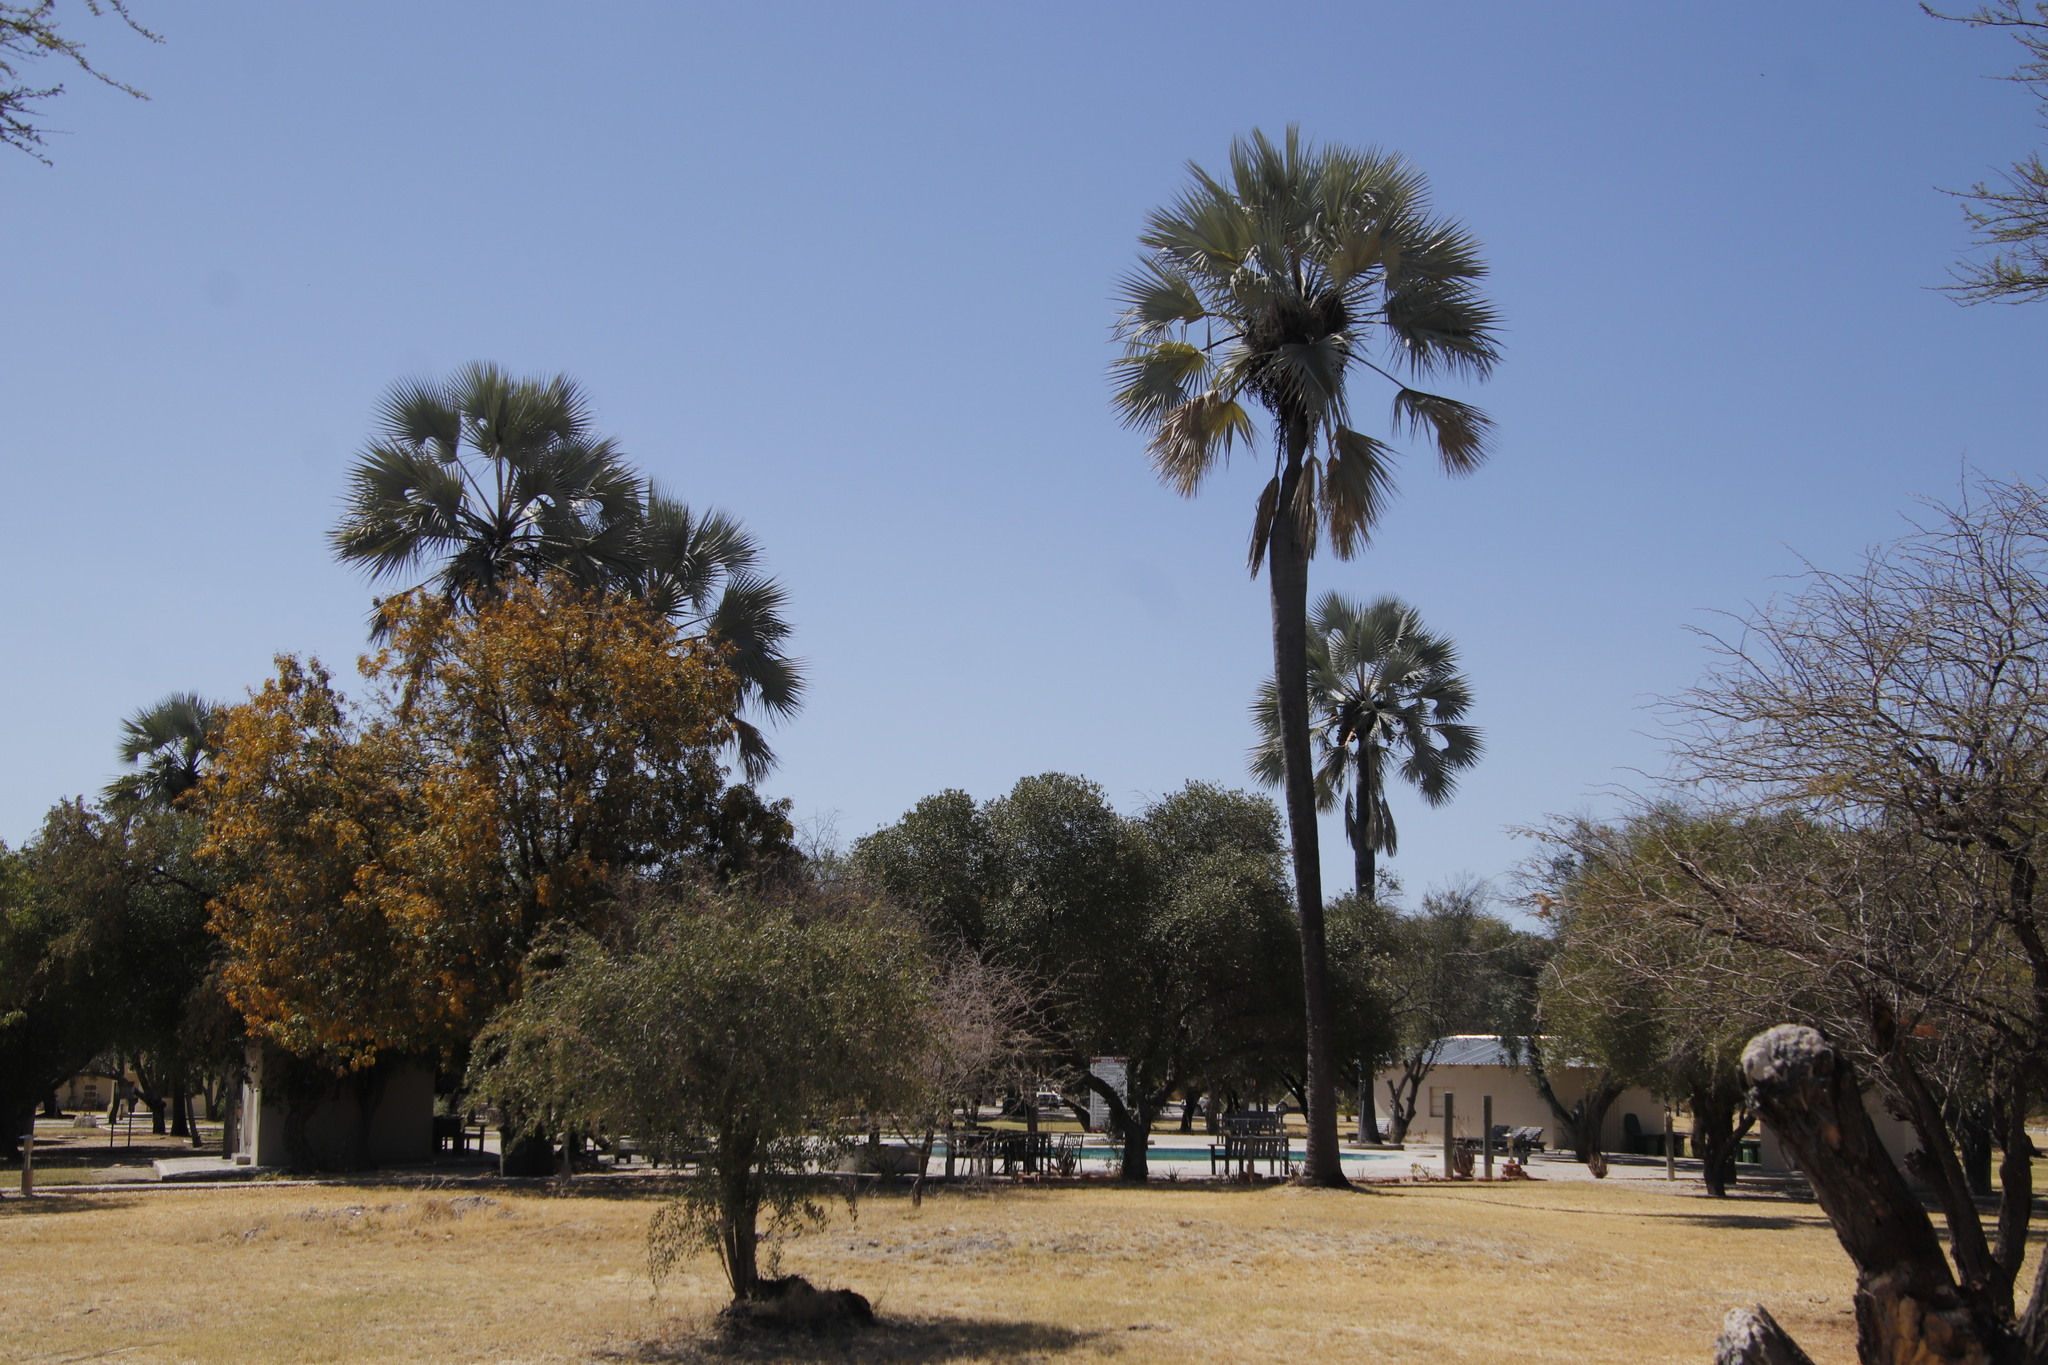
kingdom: Plantae
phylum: Tracheophyta
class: Liliopsida
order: Arecales
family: Arecaceae
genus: Hyphaene
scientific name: Hyphaene petersiana
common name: African ivory nut palm
